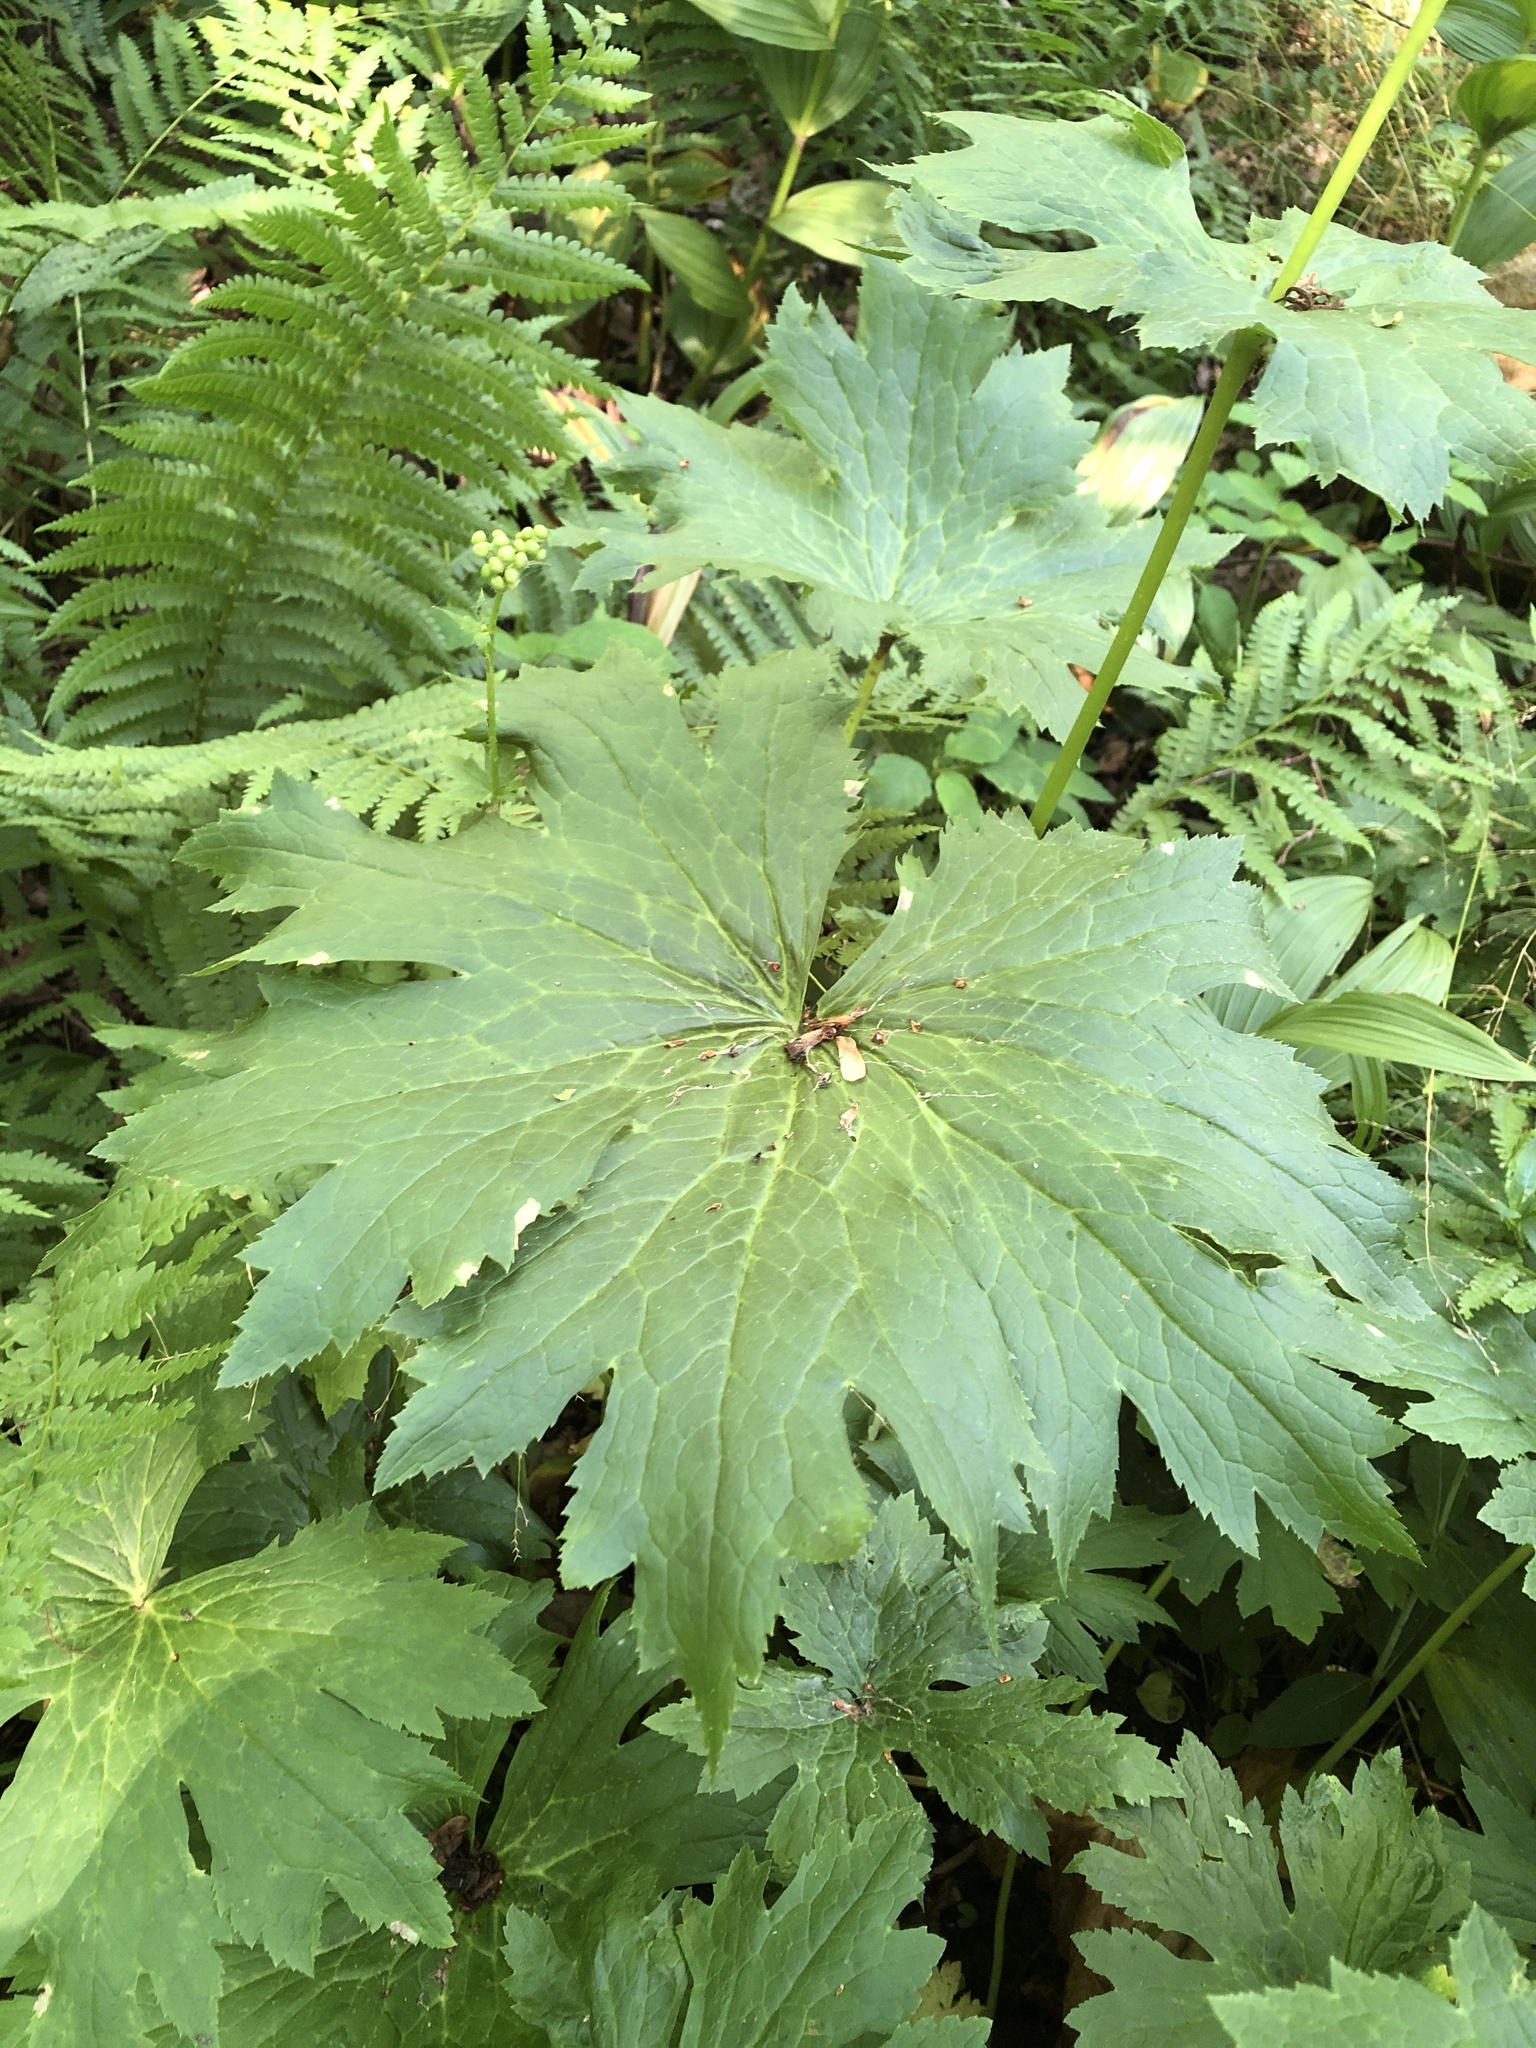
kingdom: Plantae
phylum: Tracheophyta
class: Magnoliopsida
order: Ranunculales
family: Ranunculaceae
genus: Trautvetteria
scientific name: Trautvetteria carolinensis
